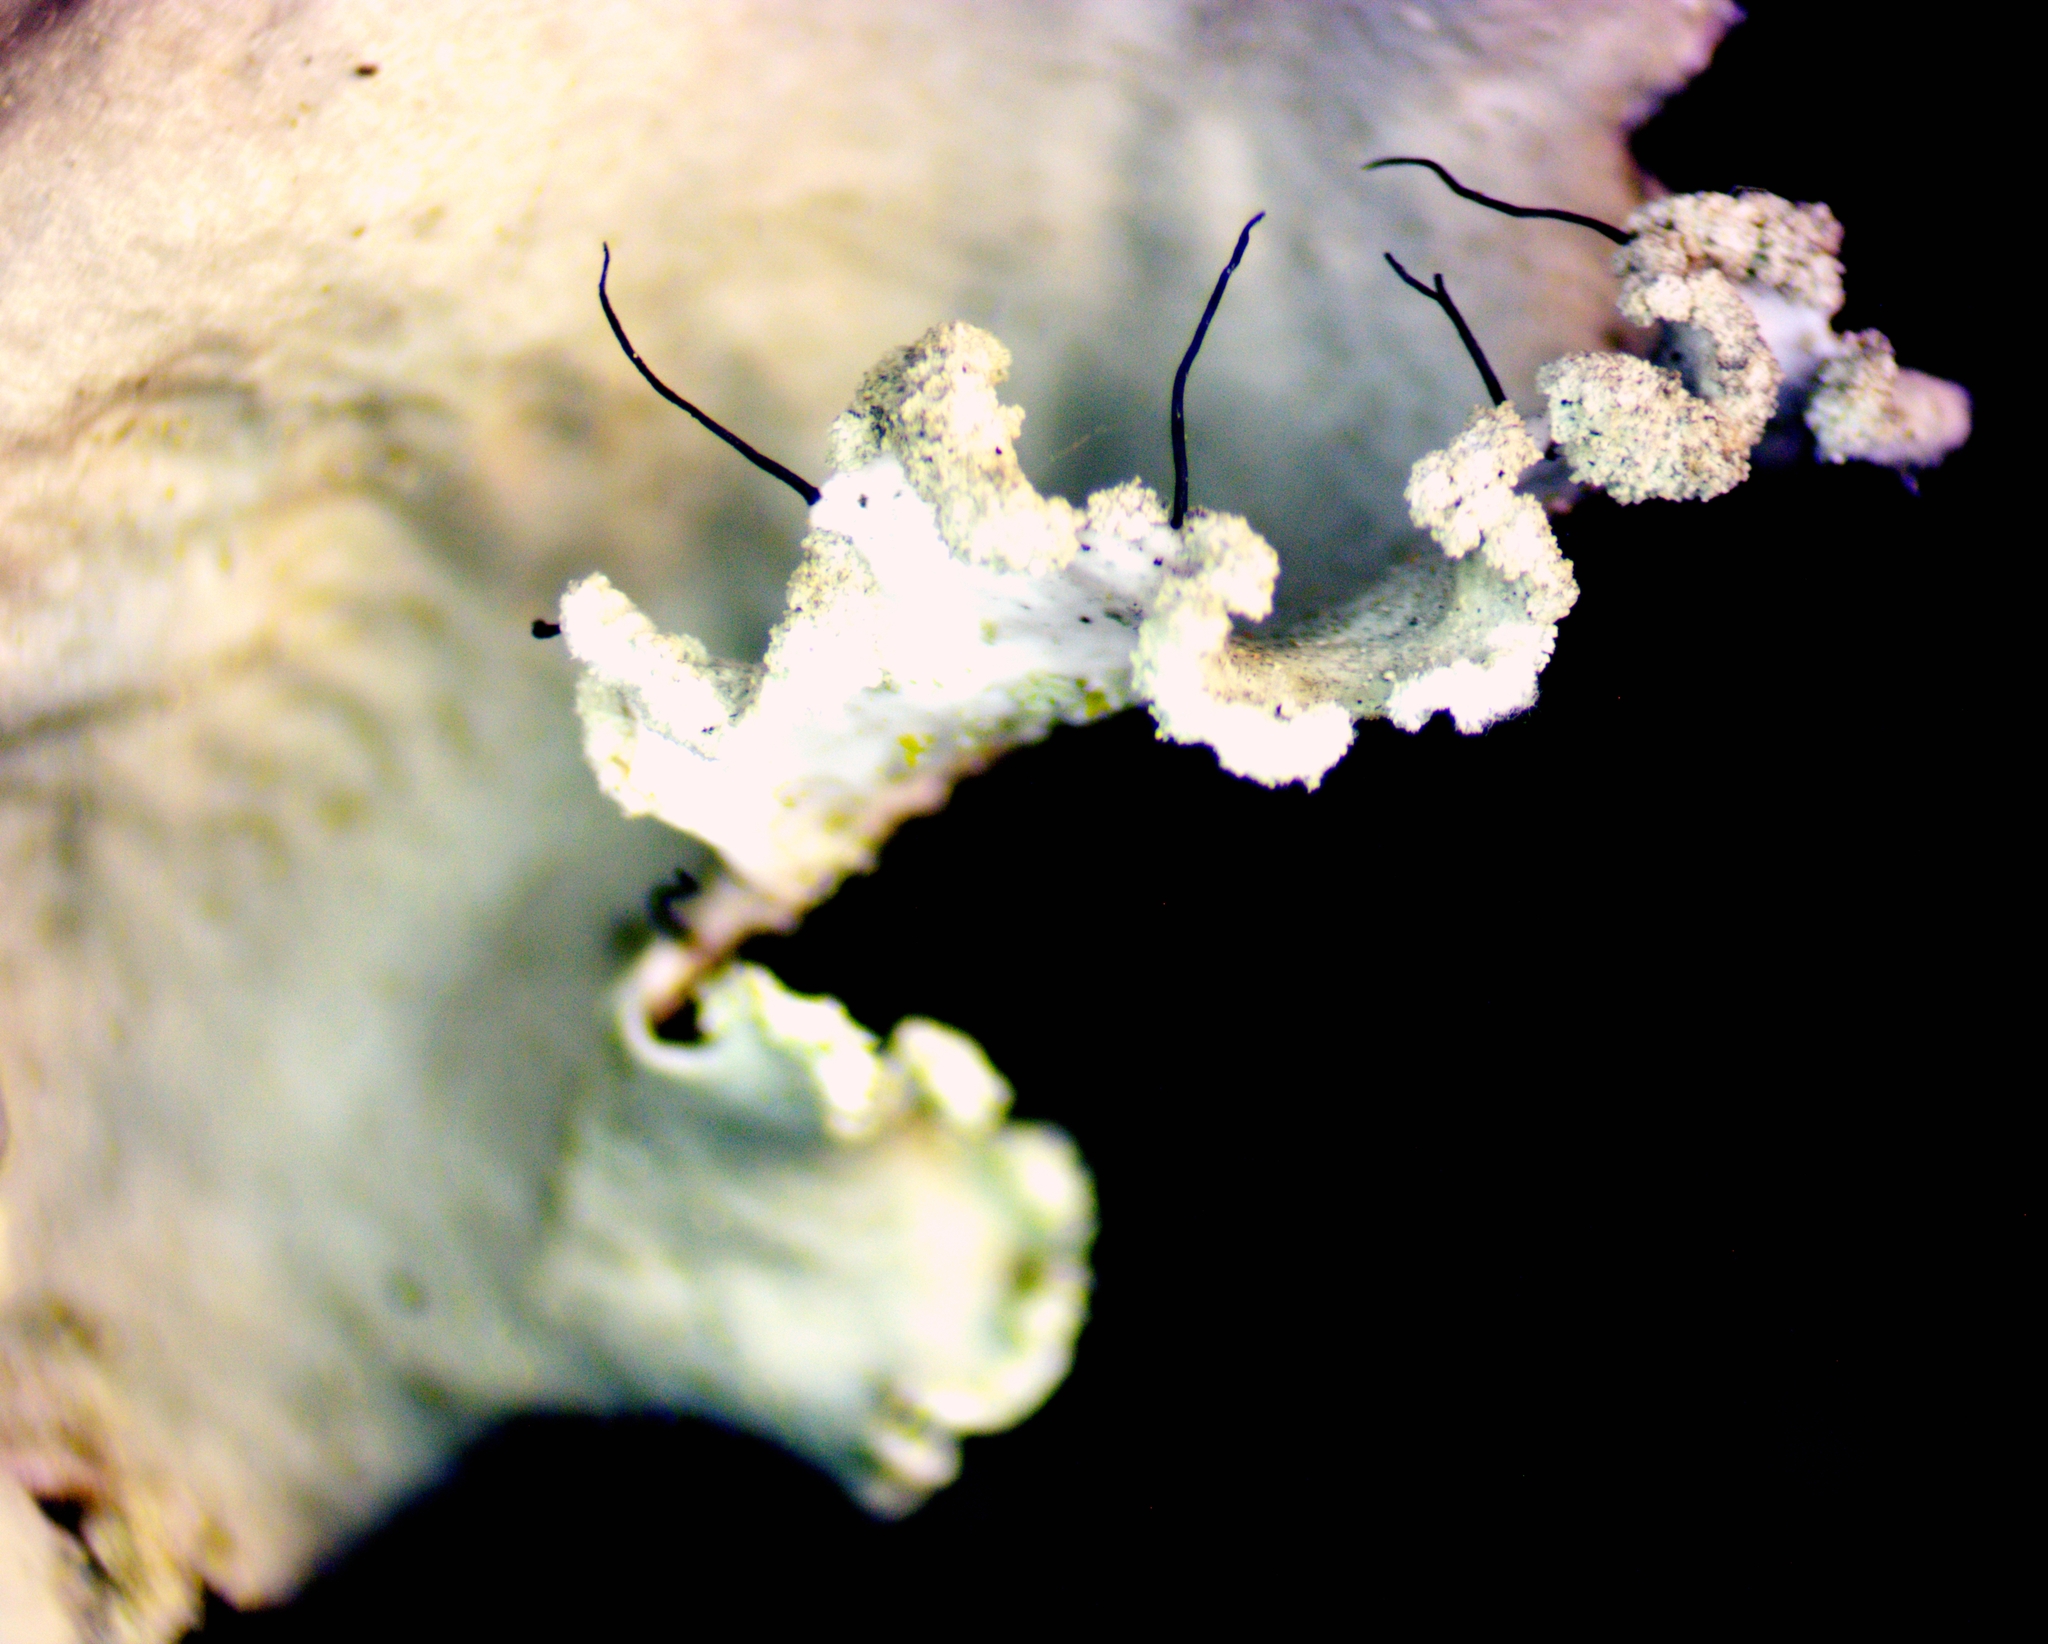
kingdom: Fungi
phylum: Ascomycota
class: Lecanoromycetes
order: Lecanorales
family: Parmeliaceae
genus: Parmotrema
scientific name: Parmotrema hypotropum
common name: Powdered ruffle lichen
